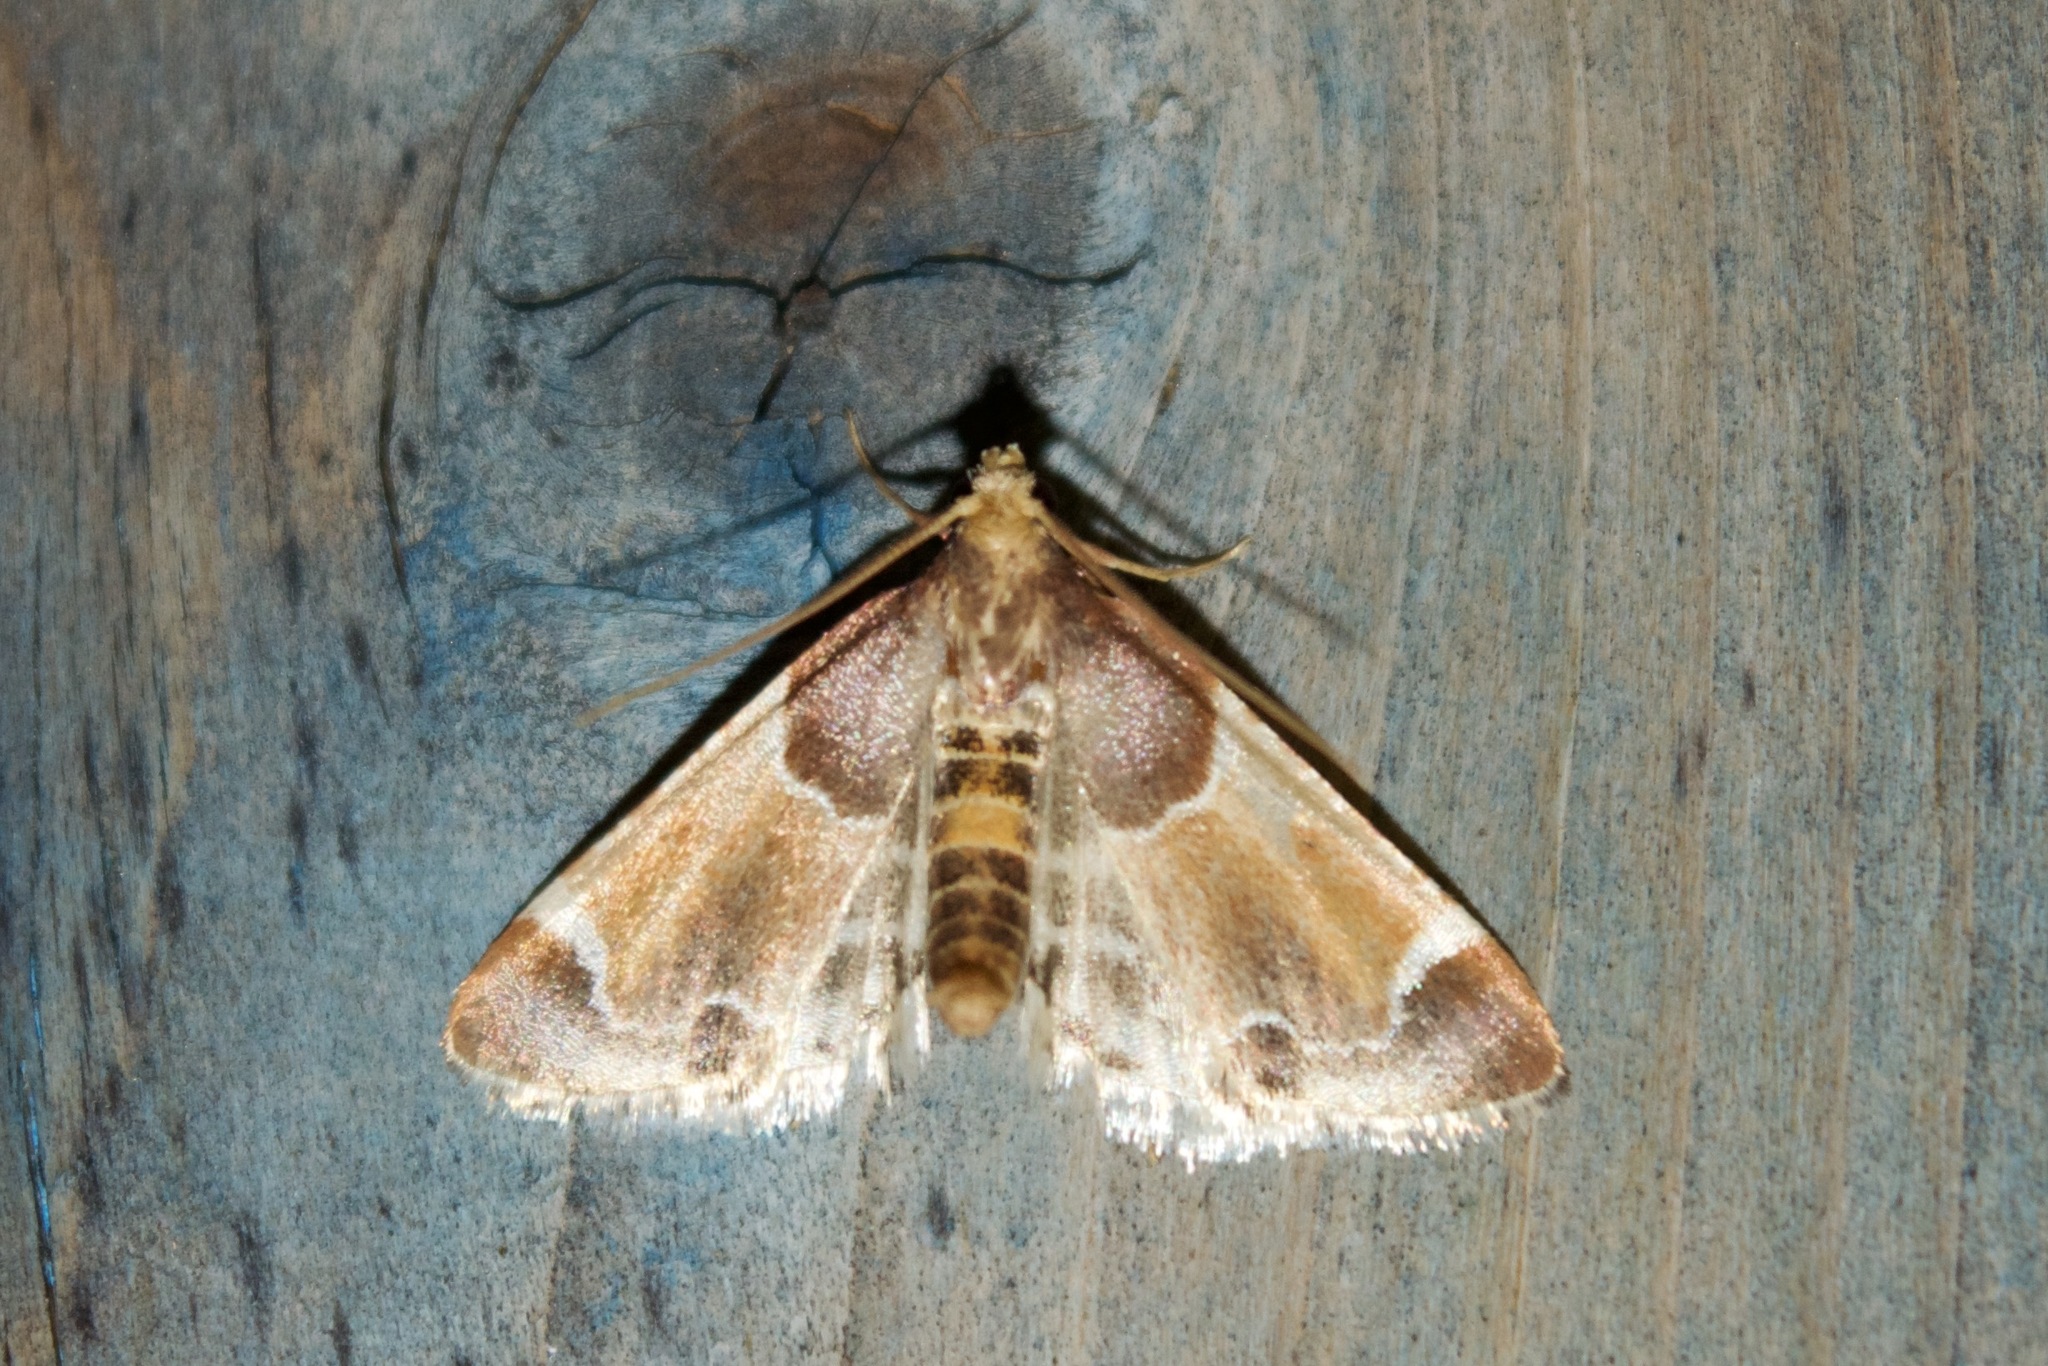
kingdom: Animalia
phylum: Arthropoda
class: Insecta
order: Lepidoptera
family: Pyralidae
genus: Pyralis
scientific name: Pyralis farinalis
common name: Meal moth
